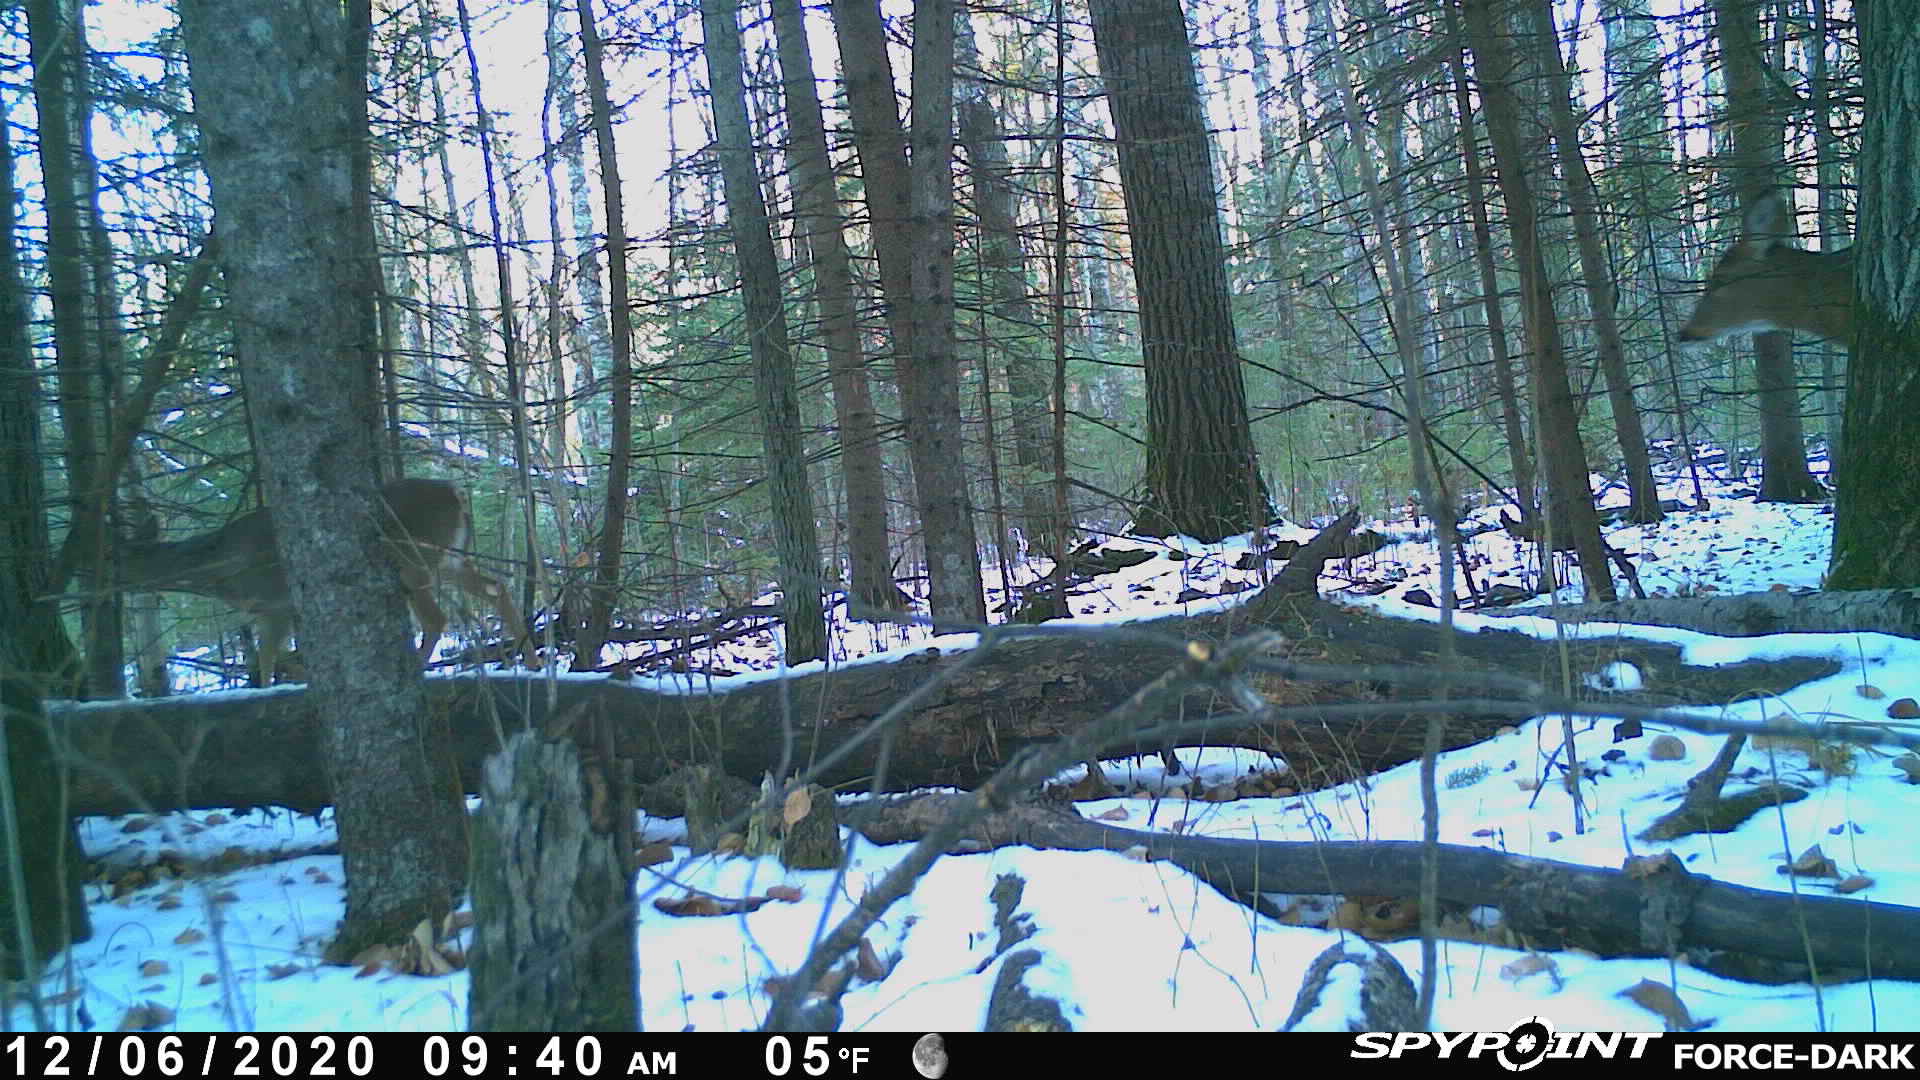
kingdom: Animalia
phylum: Chordata
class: Mammalia
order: Artiodactyla
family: Cervidae
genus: Odocoileus
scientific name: Odocoileus virginianus
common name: White-tailed deer
